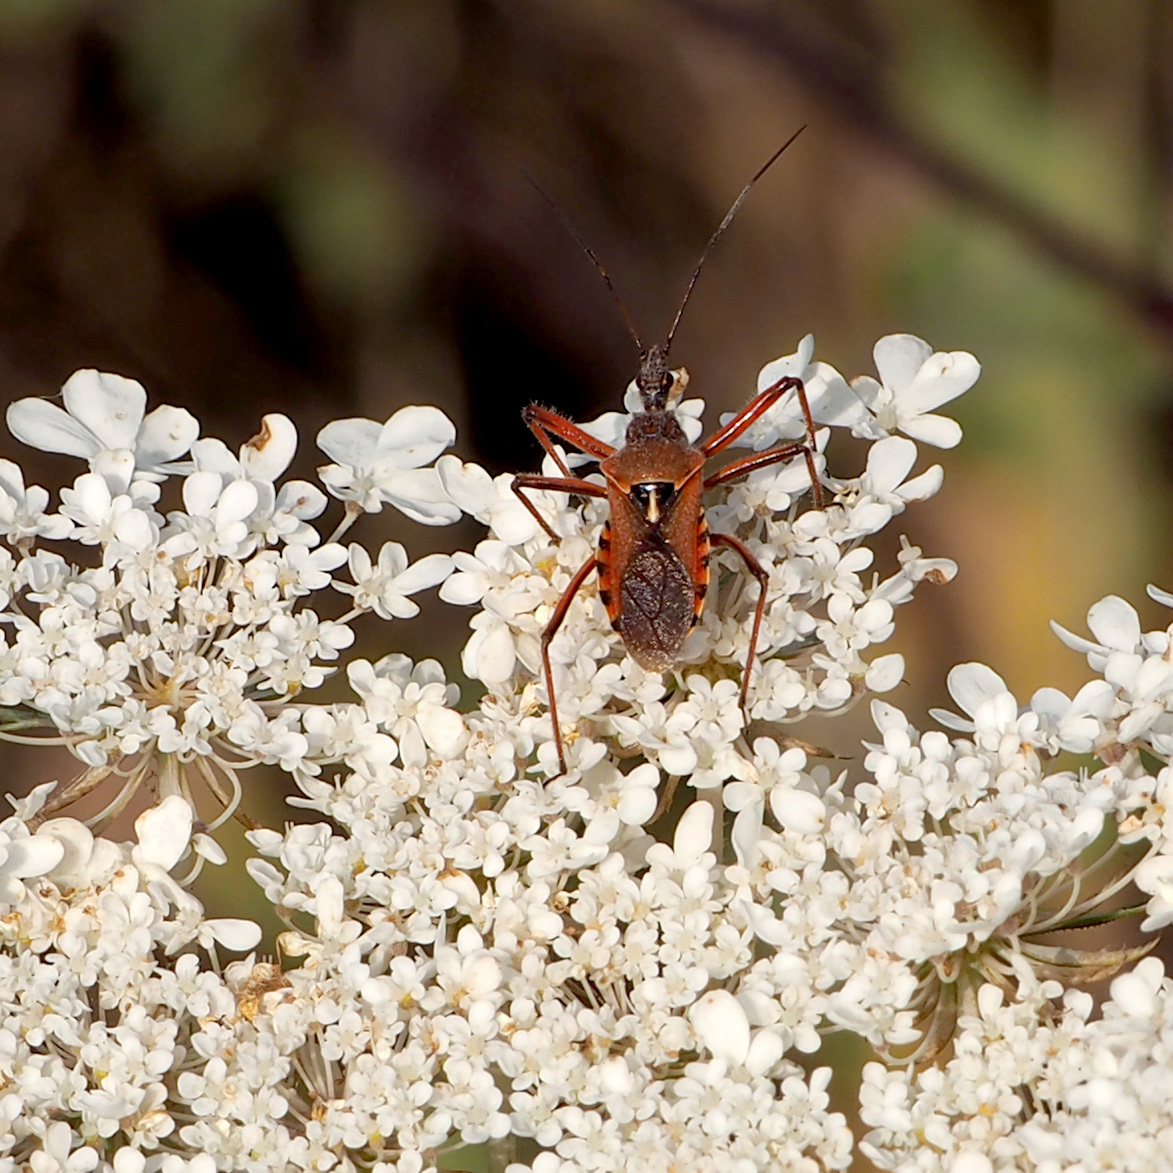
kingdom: Animalia
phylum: Arthropoda
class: Insecta
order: Hemiptera
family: Reduviidae
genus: Rhynocoris
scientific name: Rhynocoris erythropus
